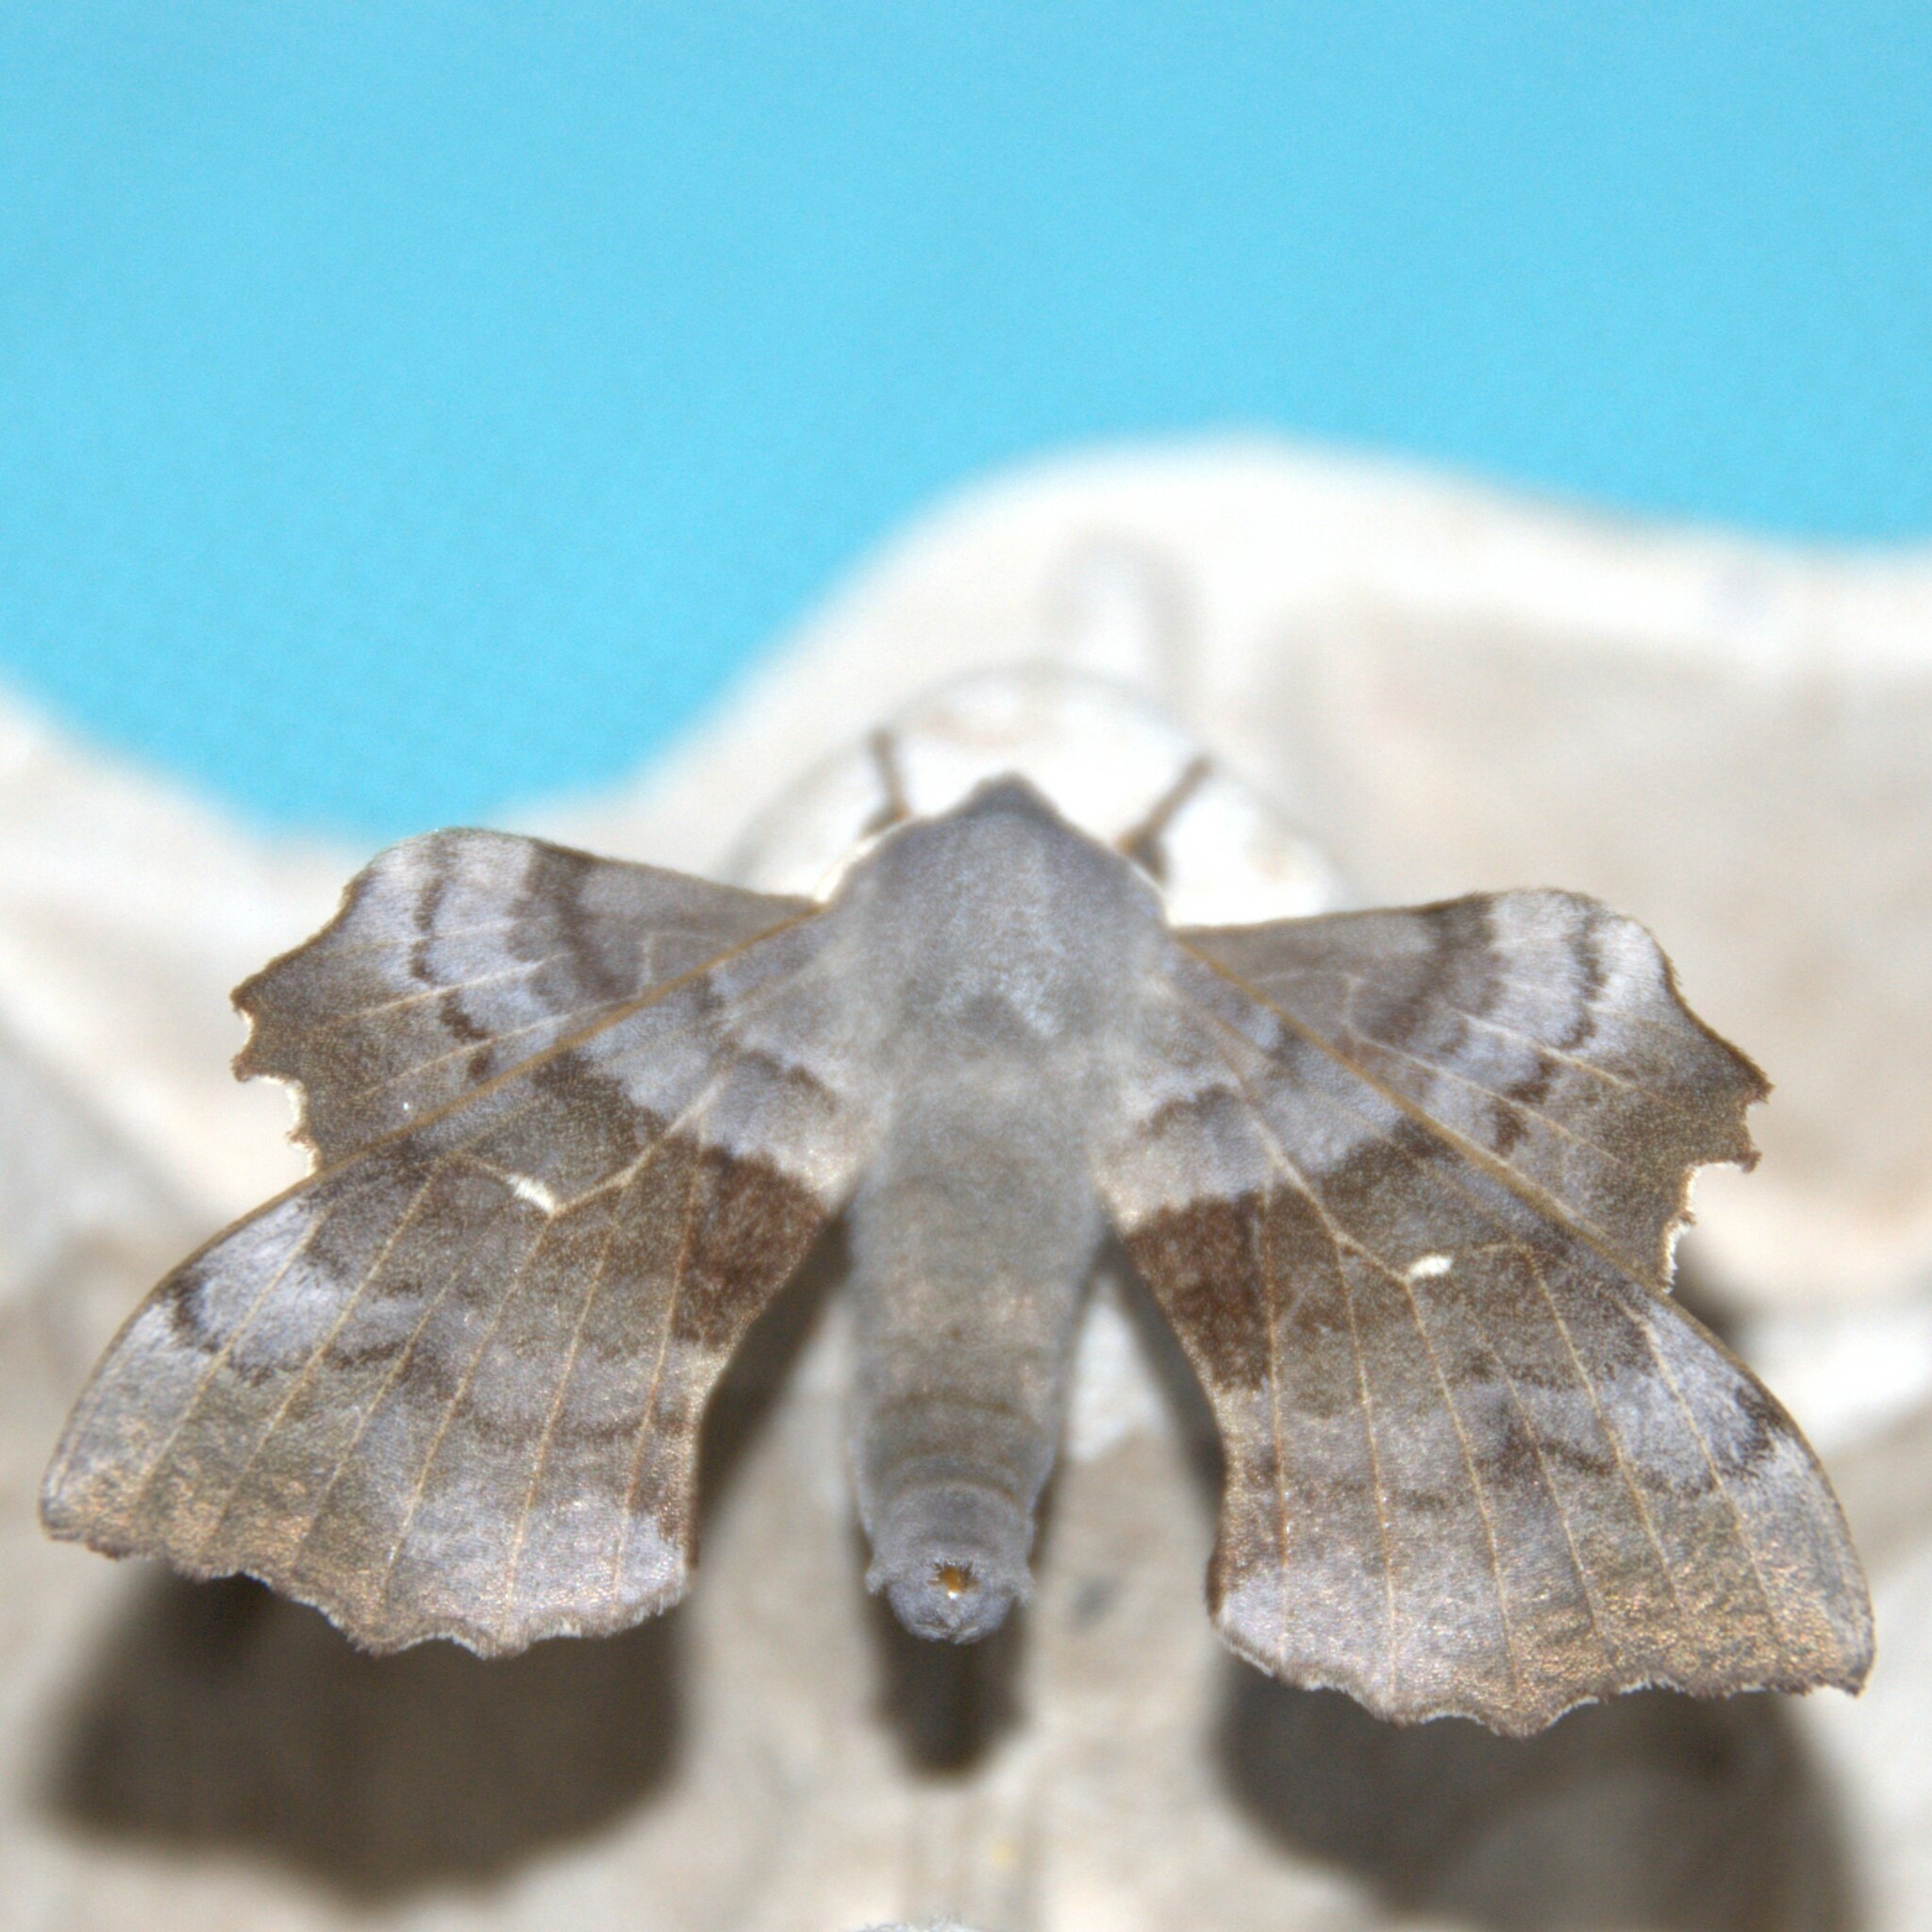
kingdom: Animalia
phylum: Arthropoda
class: Insecta
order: Lepidoptera
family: Sphingidae
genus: Laothoe
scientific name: Laothoe populi
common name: Poplar hawk-moth
